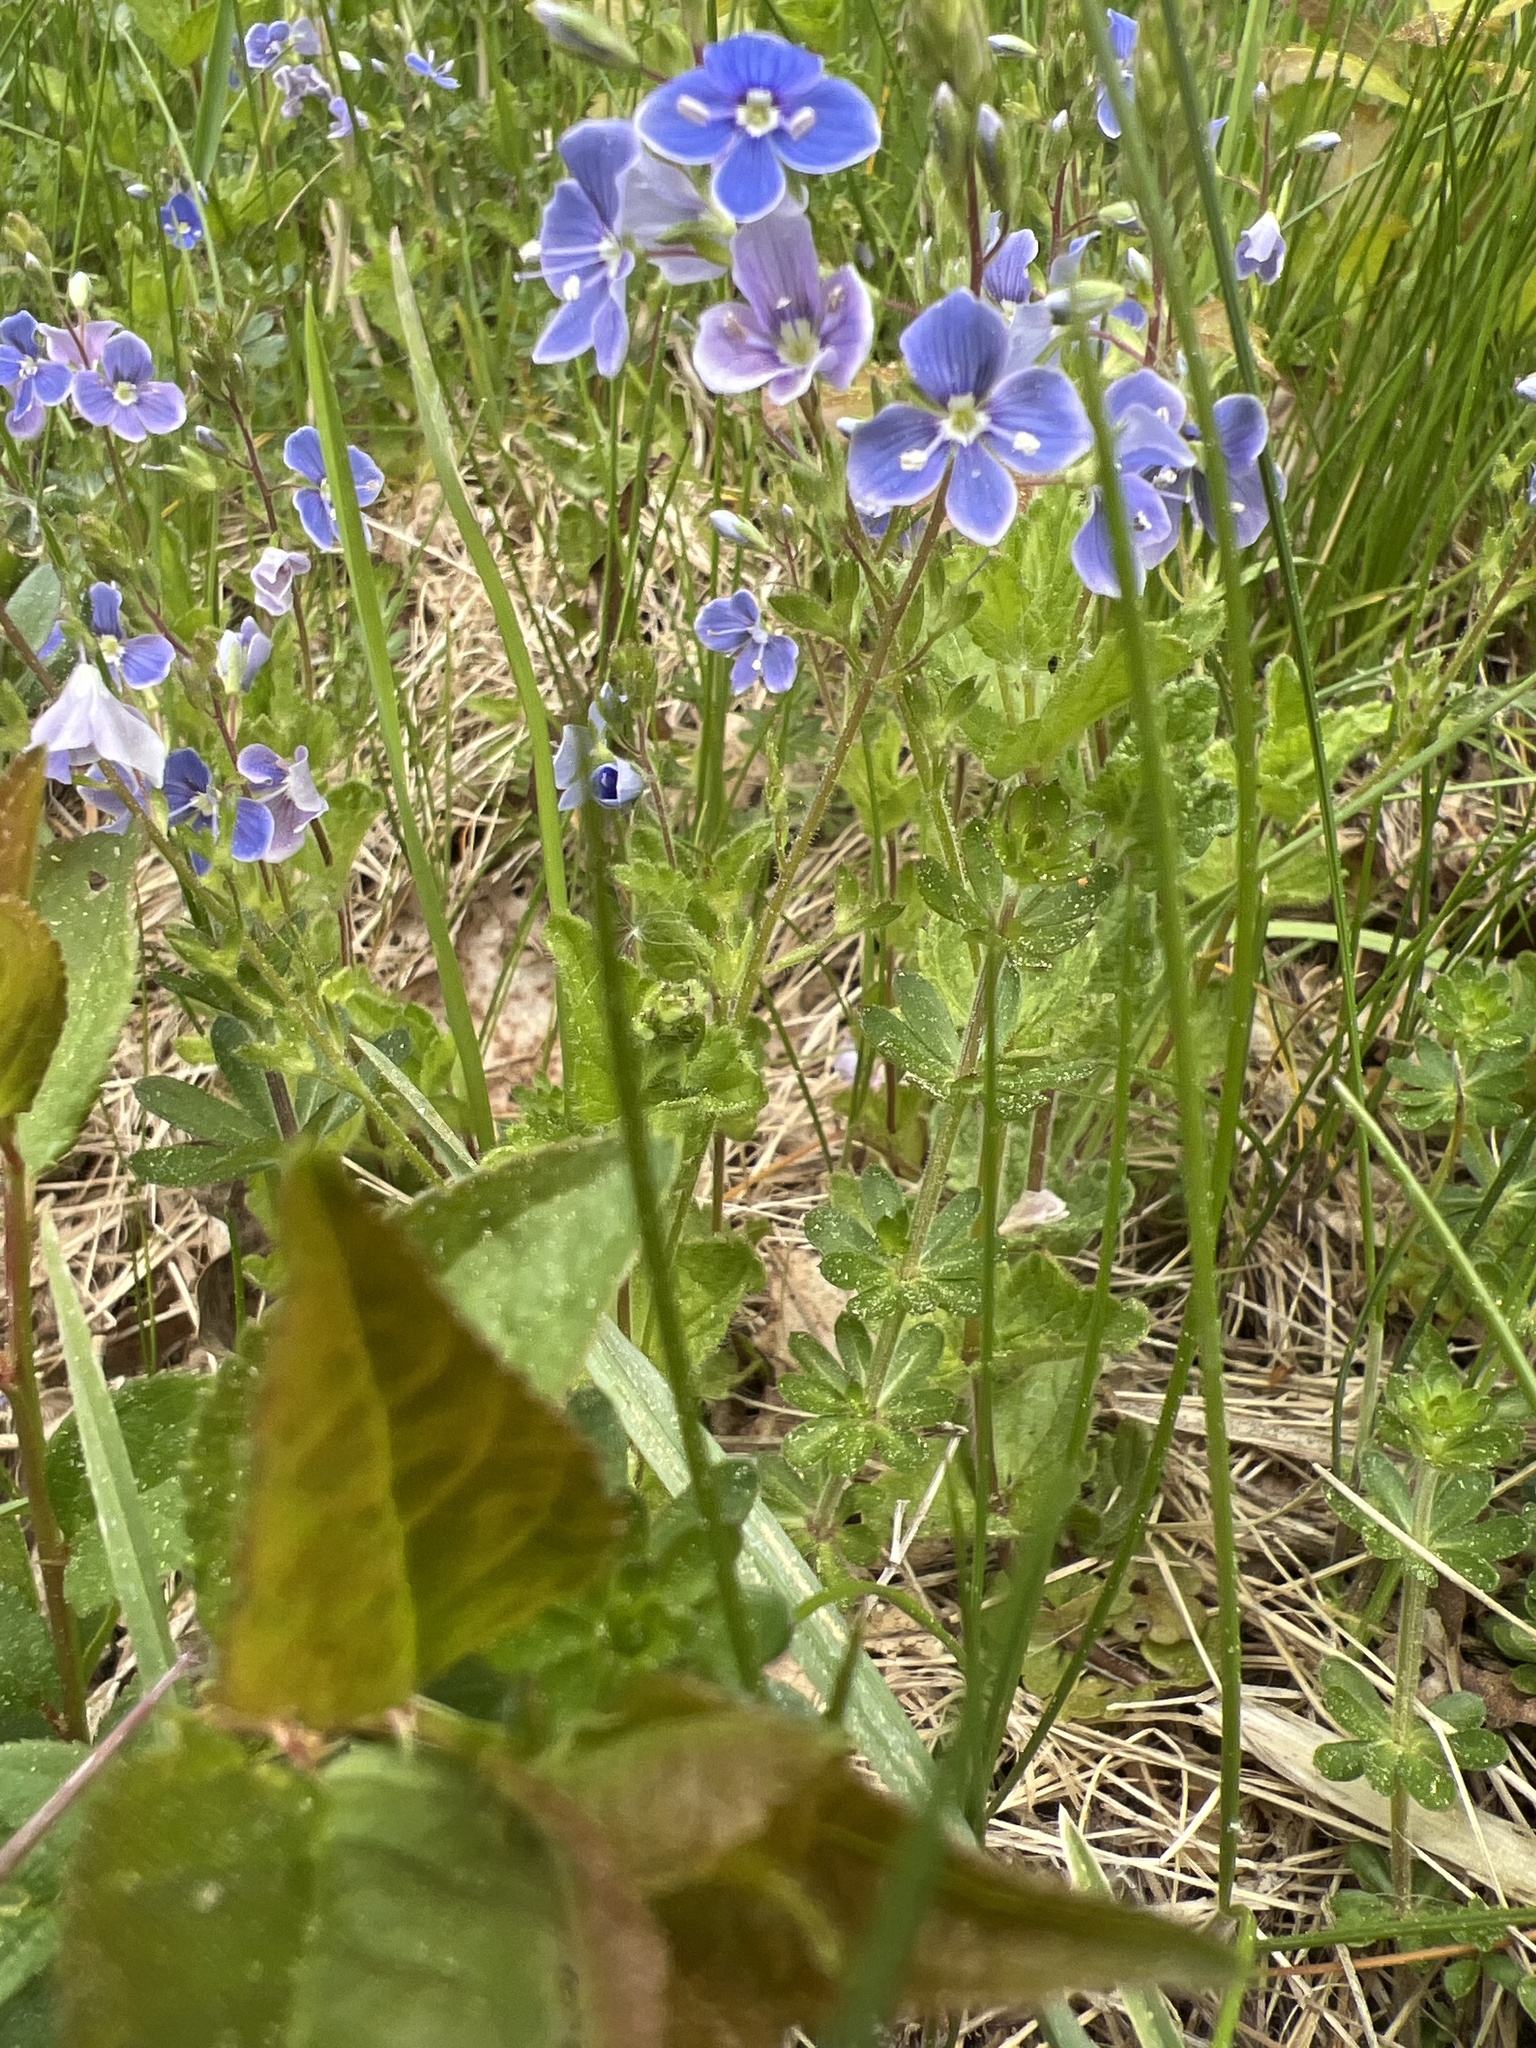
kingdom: Plantae
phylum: Tracheophyta
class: Magnoliopsida
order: Lamiales
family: Plantaginaceae
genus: Veronica
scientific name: Veronica chamaedrys
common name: Germander speedwell
